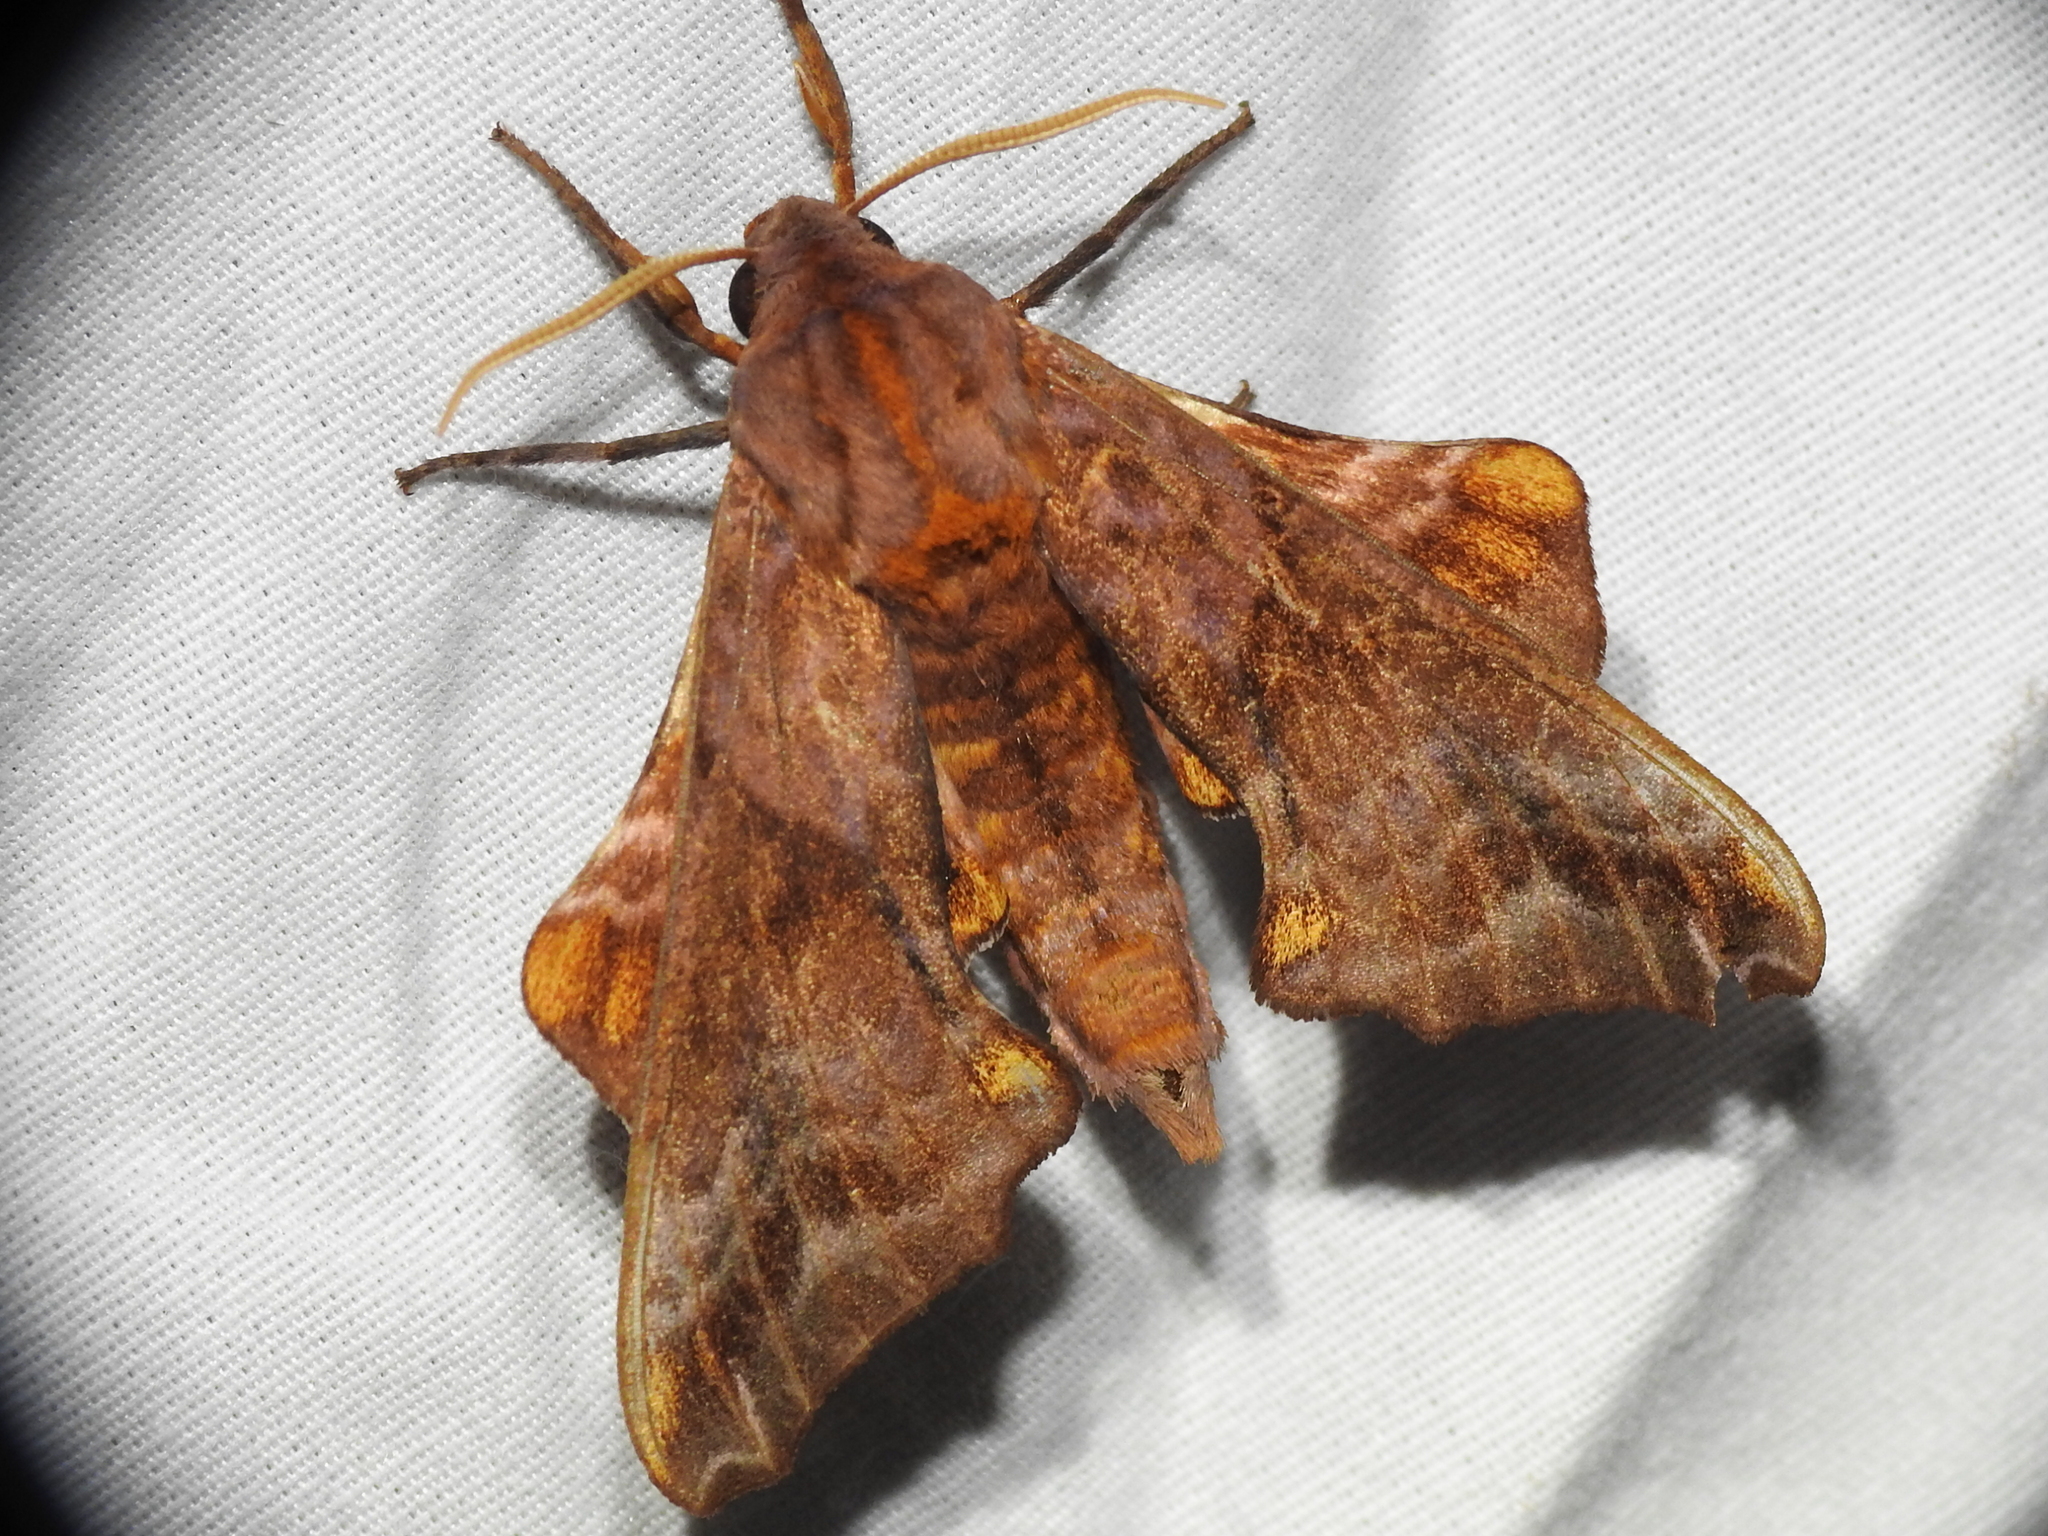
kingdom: Animalia
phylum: Arthropoda
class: Insecta
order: Lepidoptera
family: Sphingidae
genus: Paonias
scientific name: Paonias myops
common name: Small-eyed sphinx
